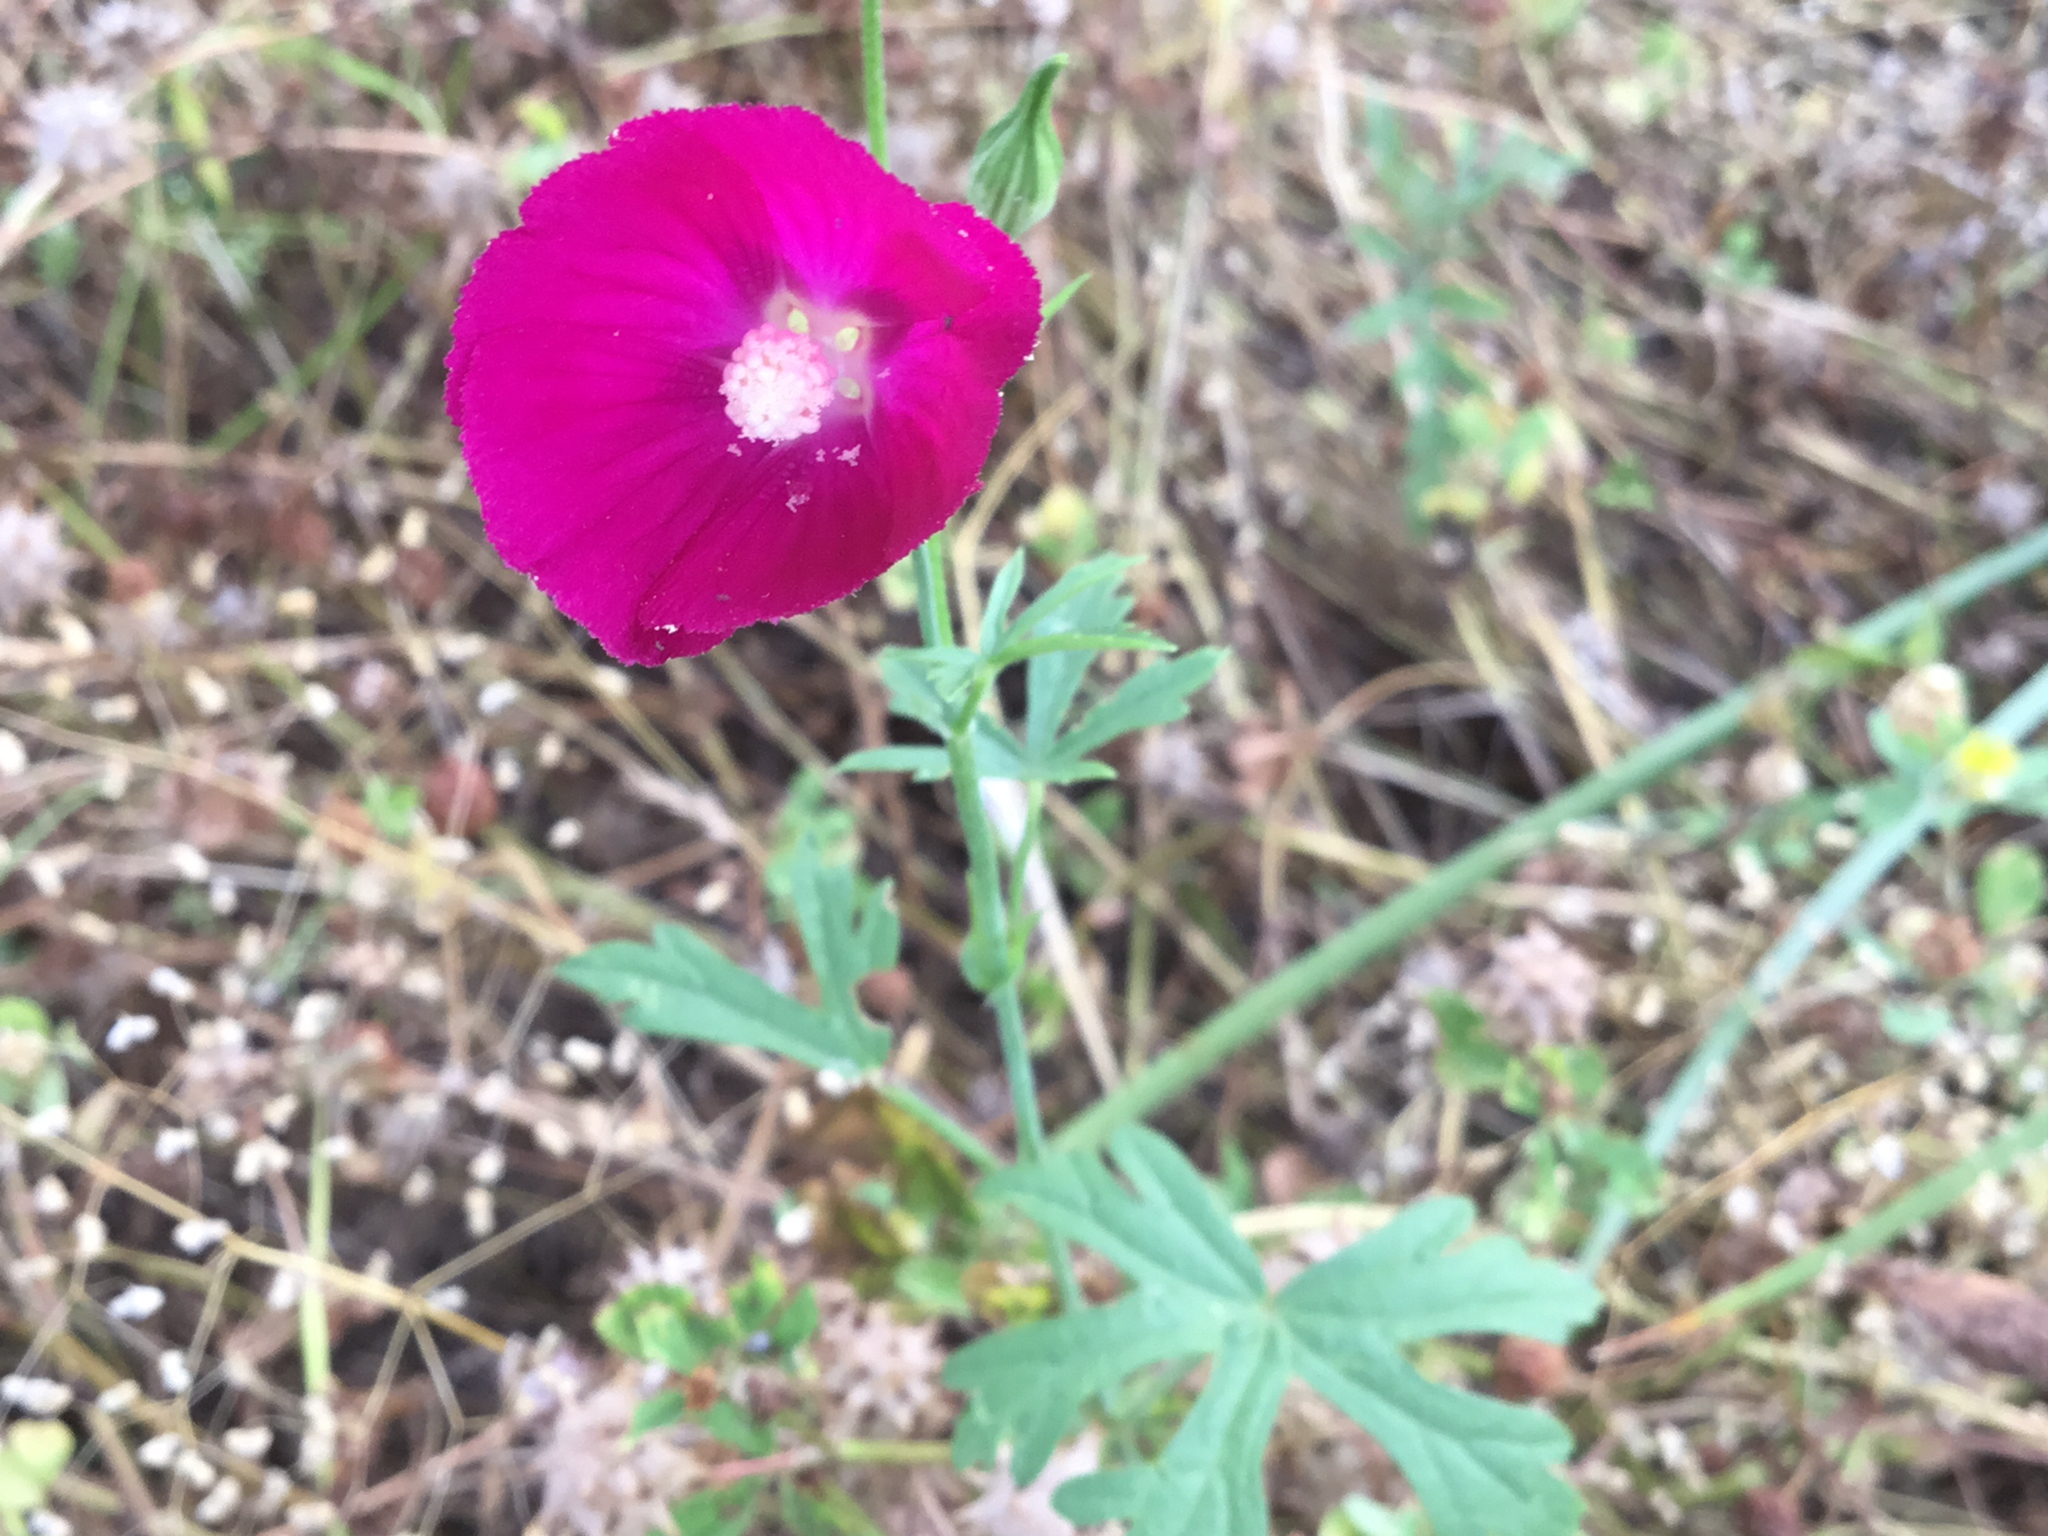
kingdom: Plantae
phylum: Tracheophyta
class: Magnoliopsida
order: Malvales
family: Malvaceae
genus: Callirhoe
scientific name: Callirhoe leiocarpa
